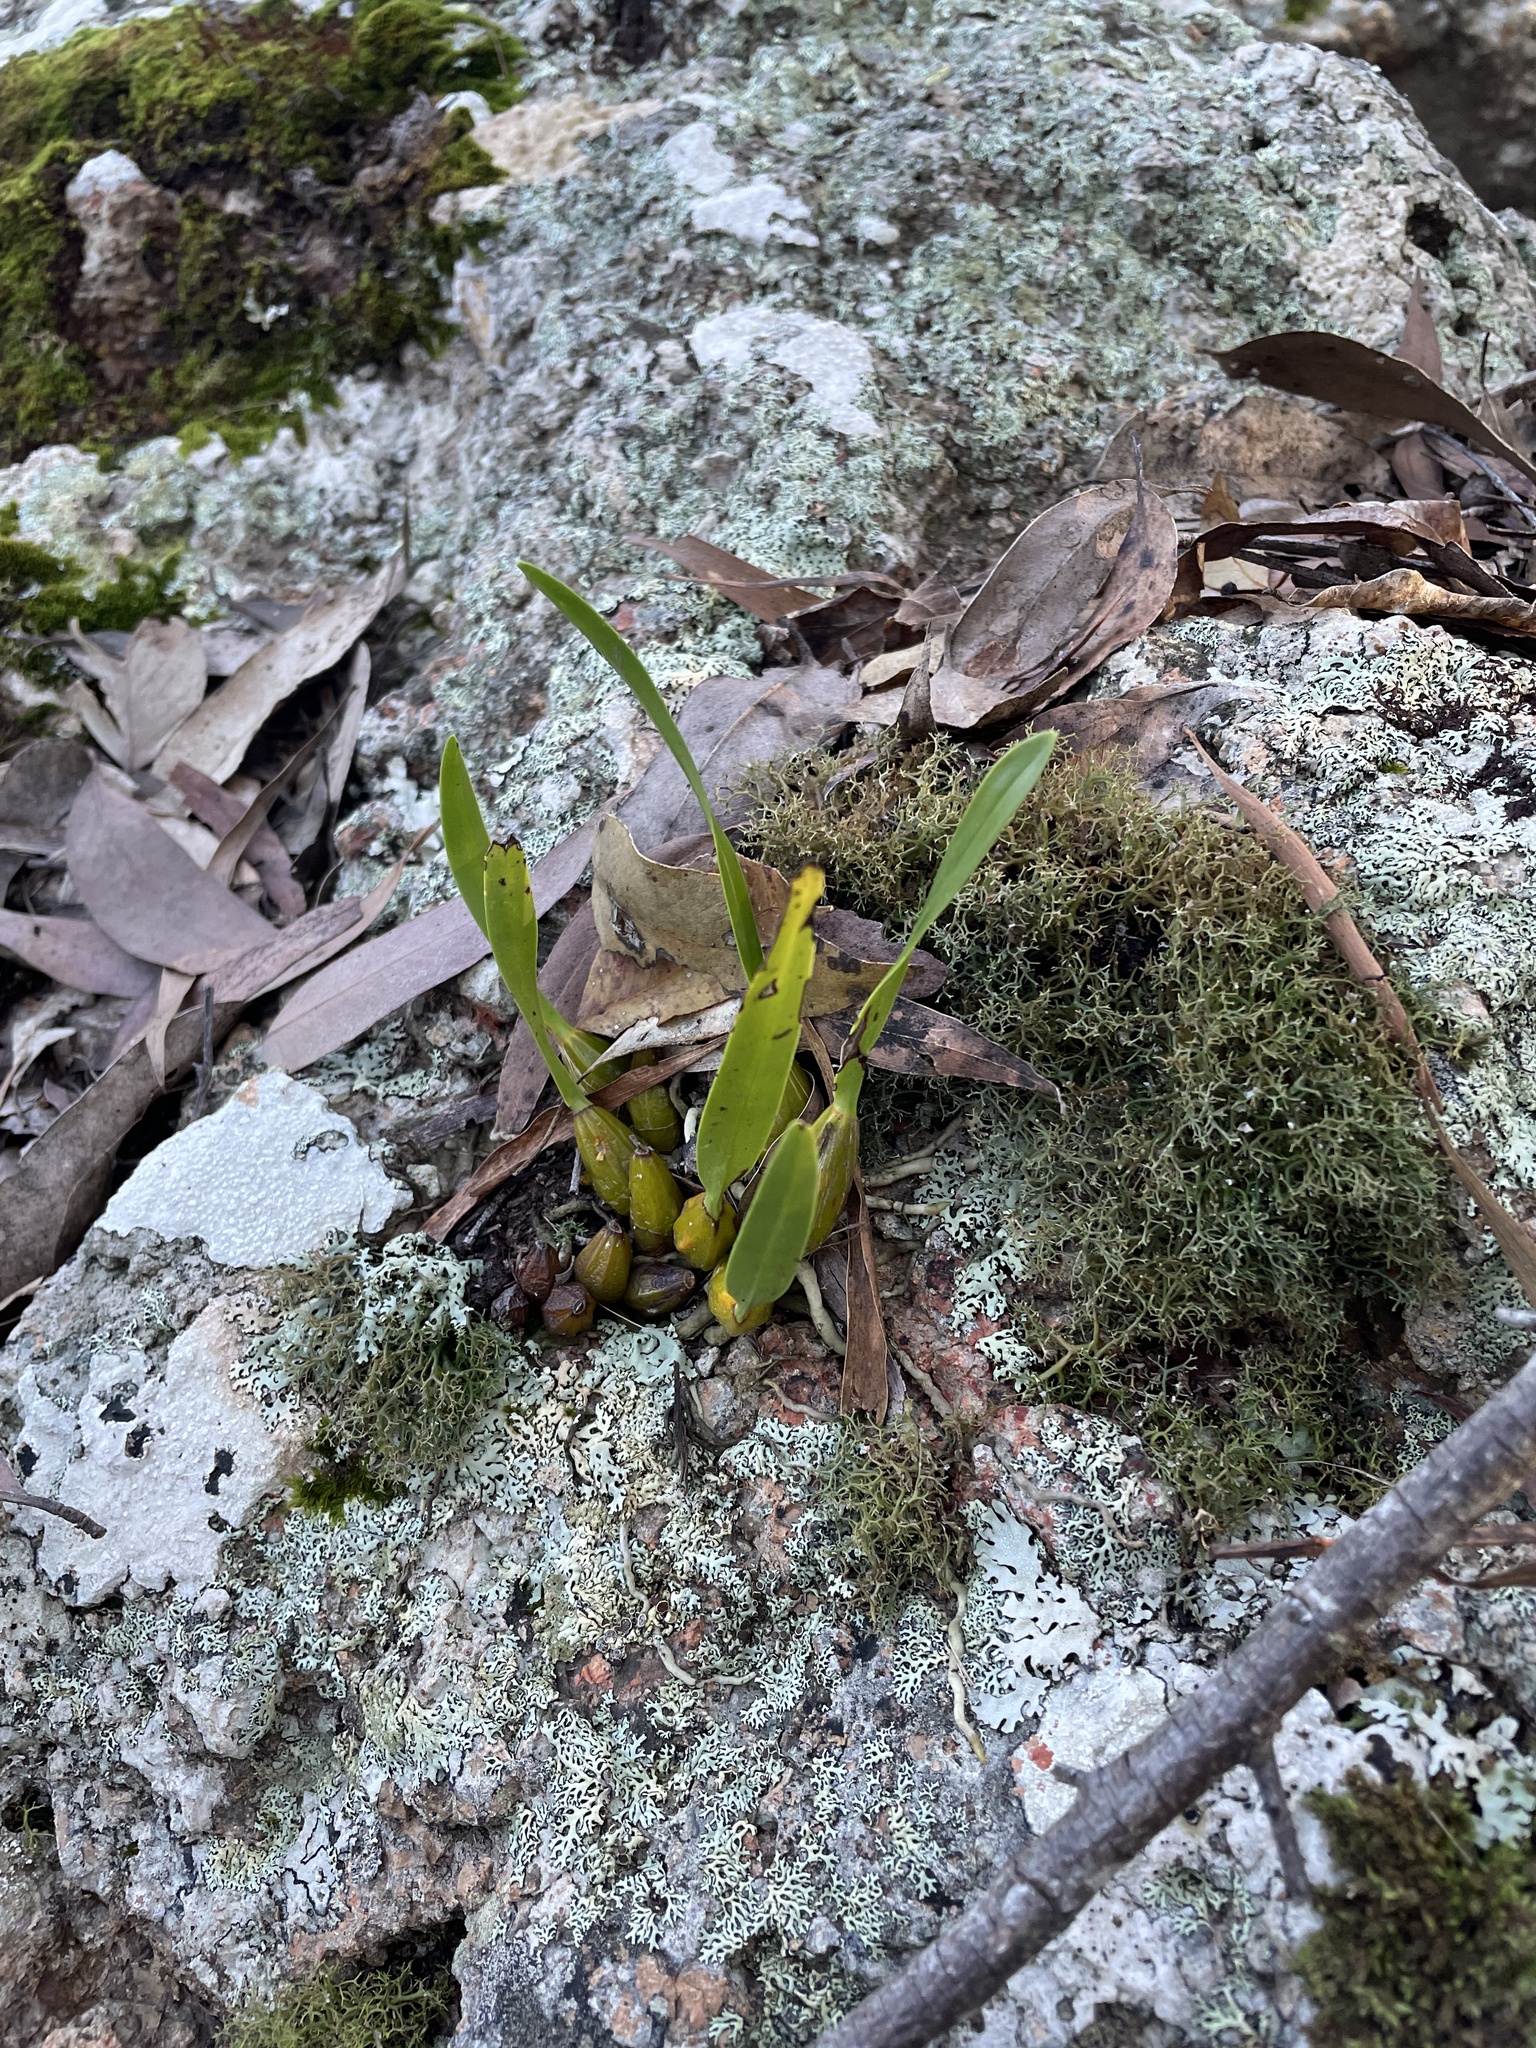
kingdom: Plantae
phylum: Tracheophyta
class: Liliopsida
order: Asparagales
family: Orchidaceae
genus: Dendrobium
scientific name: Dendrobium monophyllum
